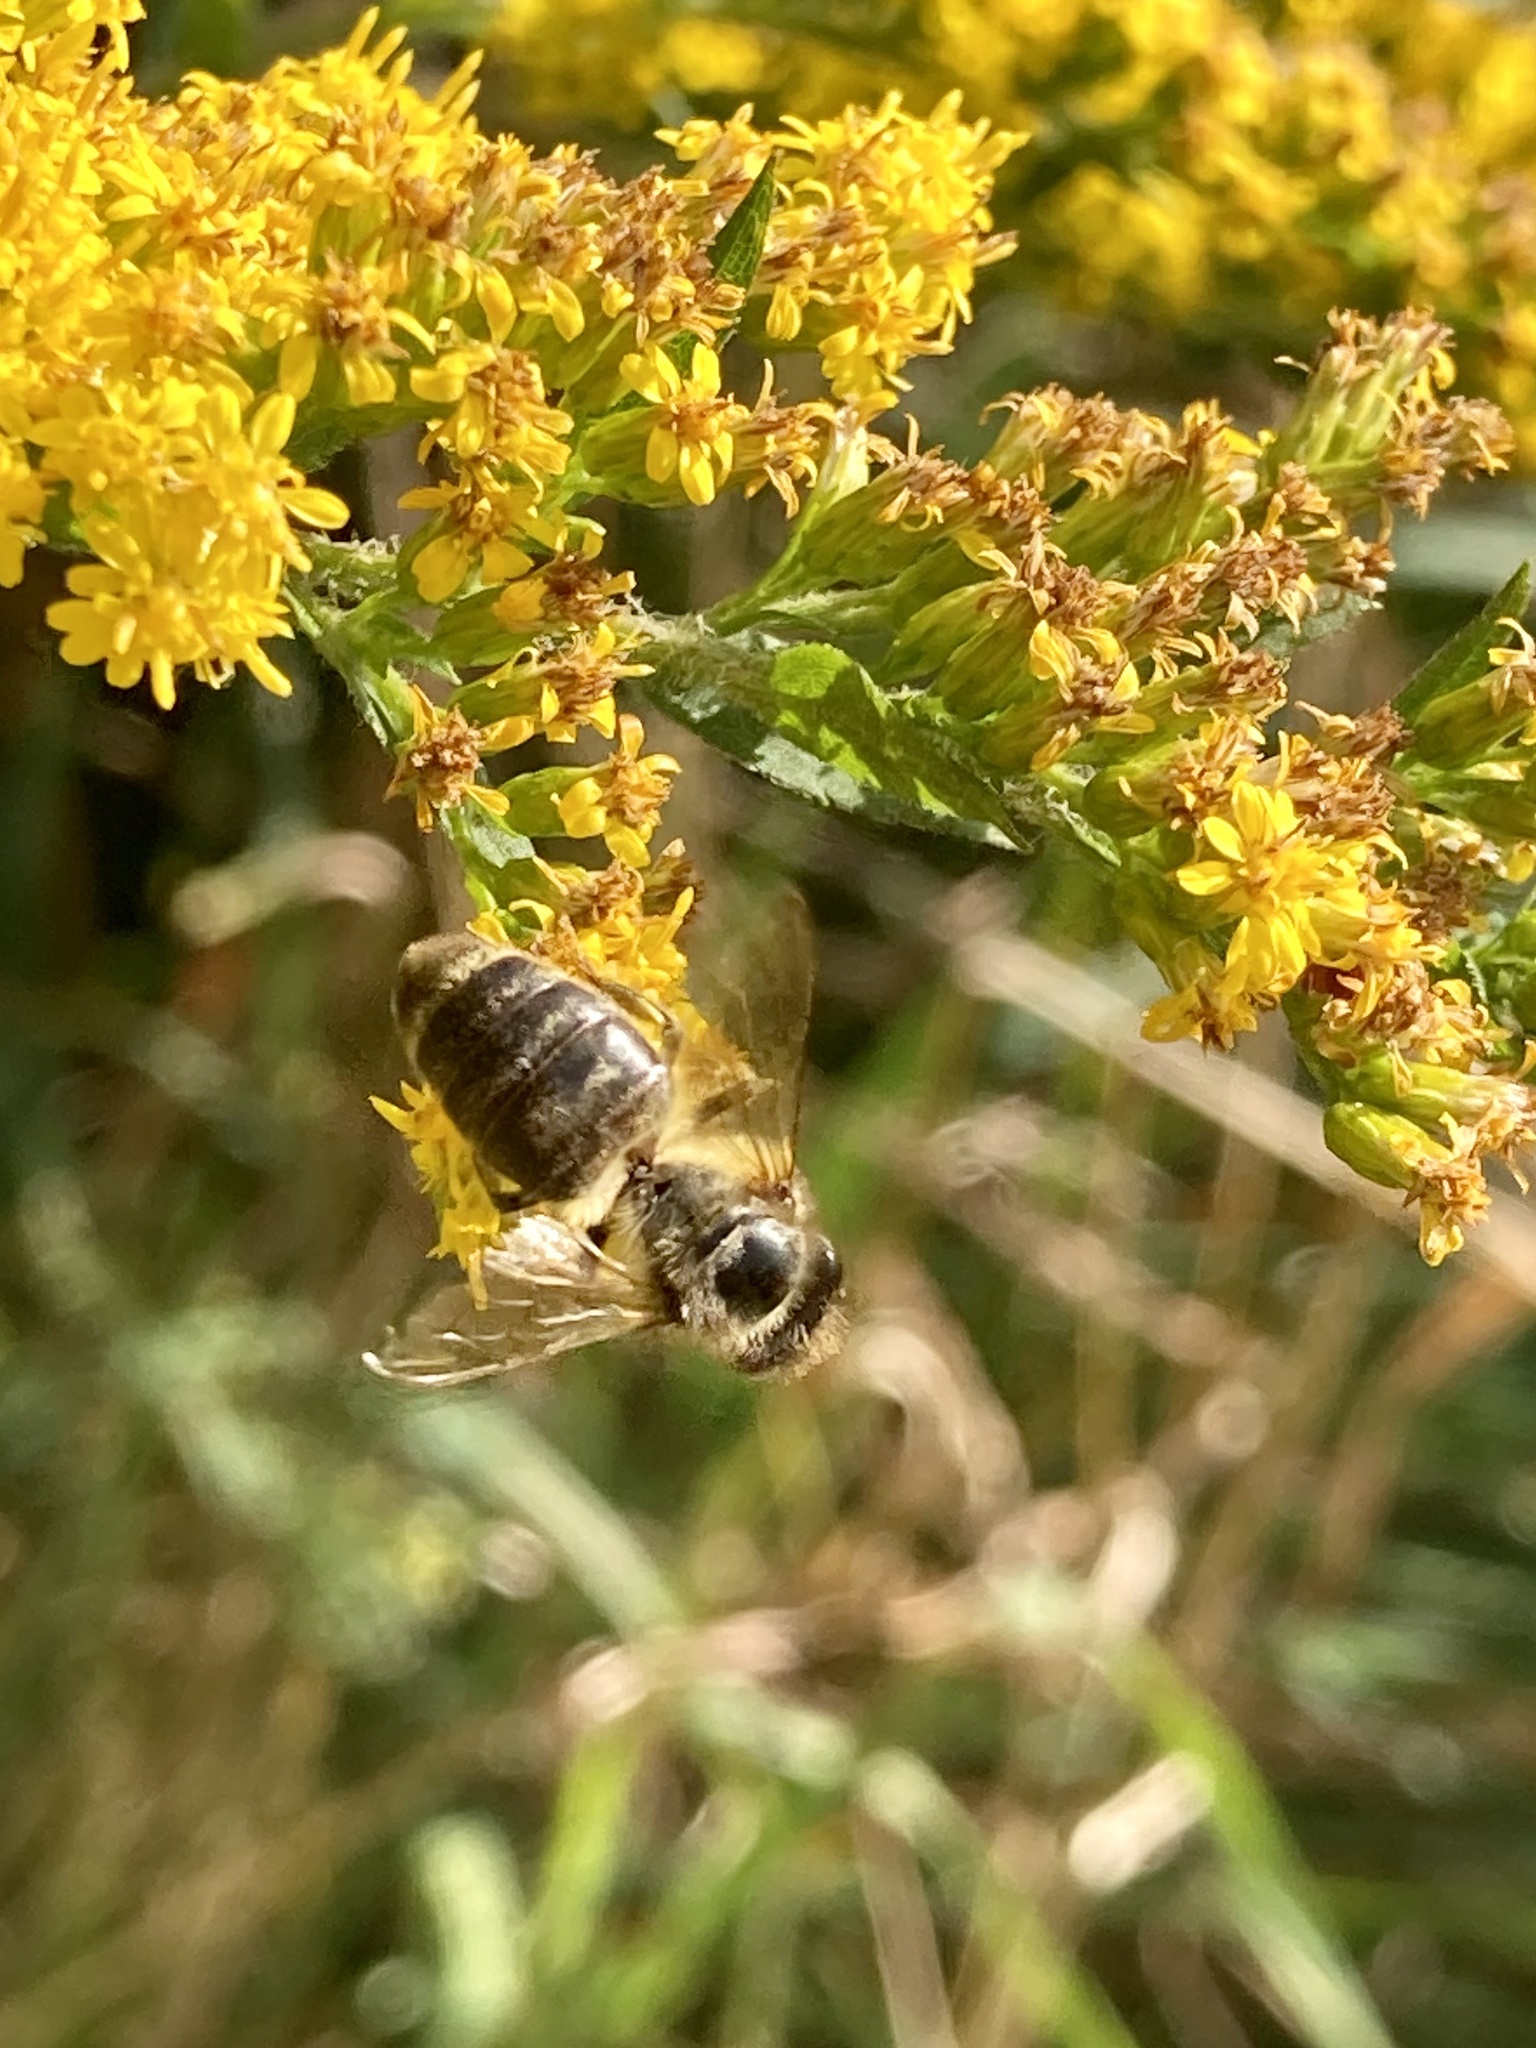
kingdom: Animalia
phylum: Arthropoda
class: Insecta
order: Hymenoptera
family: Apidae
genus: Apis
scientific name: Apis mellifera
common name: Honey bee
